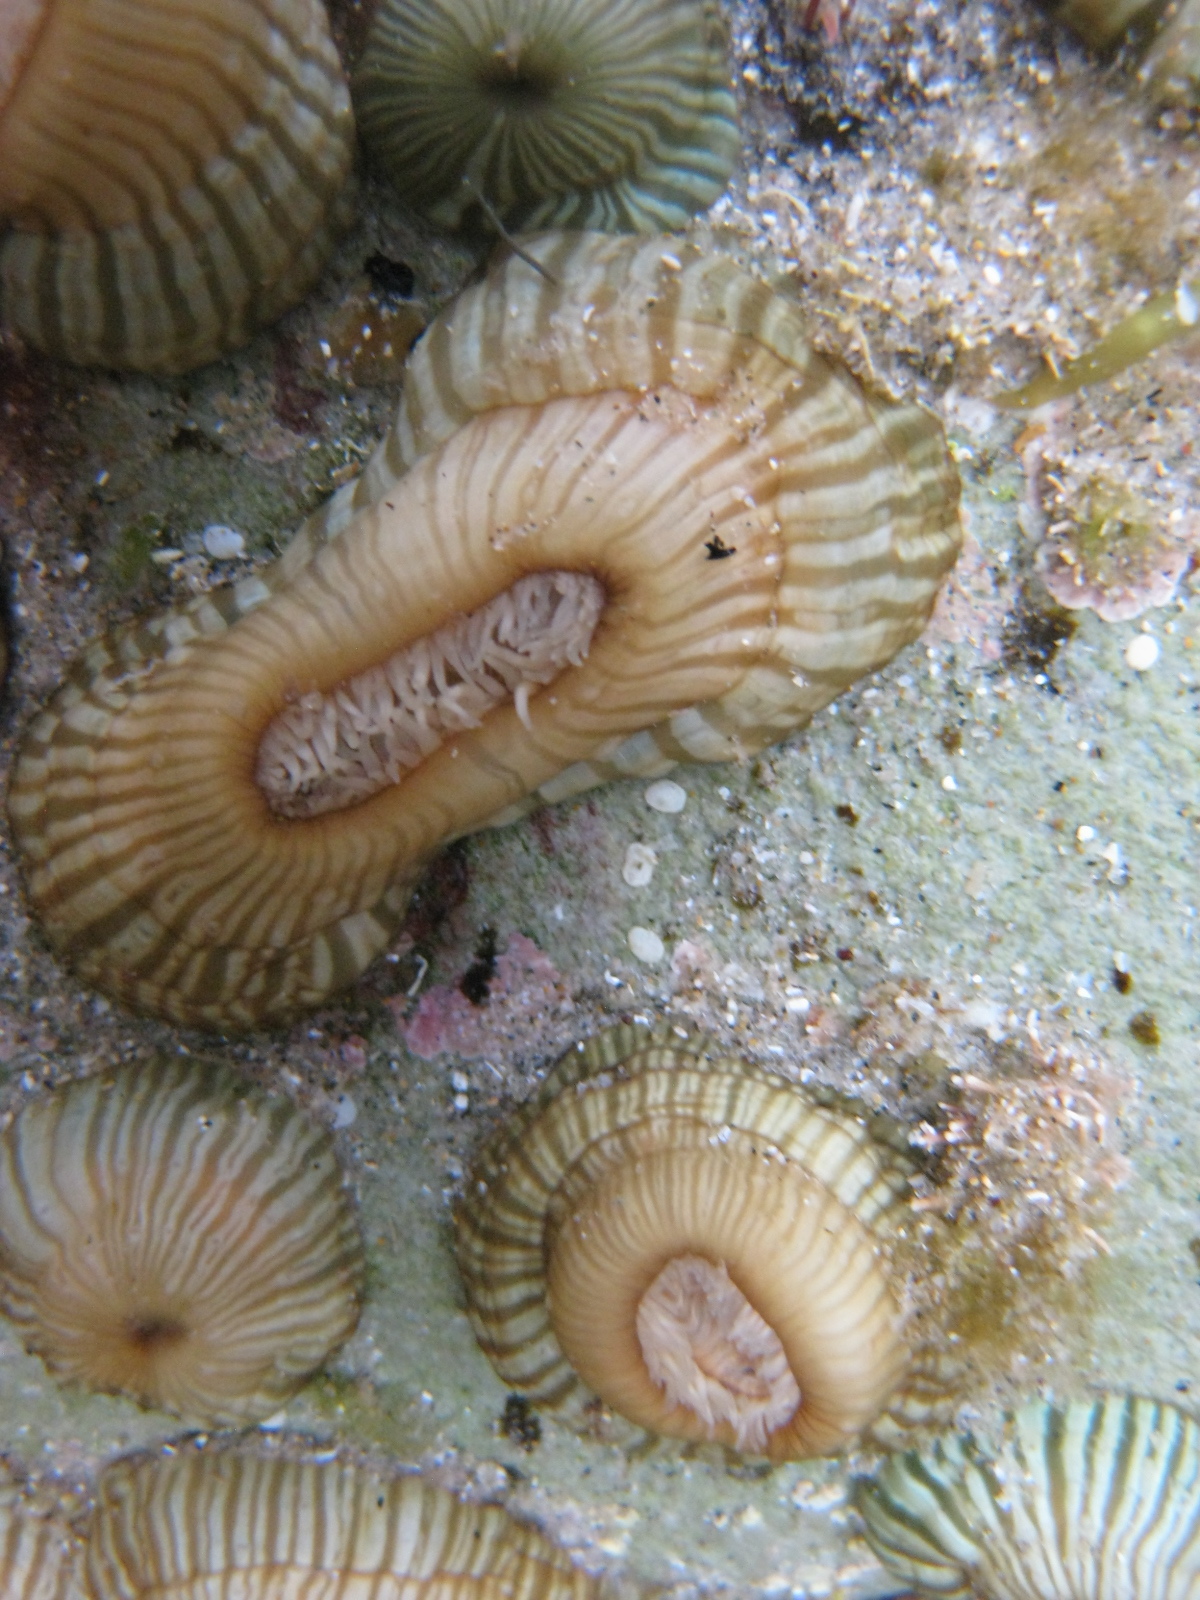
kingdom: Animalia
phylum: Cnidaria
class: Anthozoa
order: Actiniaria
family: Sagartiidae
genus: Anthothoe
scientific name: Anthothoe albocincta
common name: Orange striped anemone
